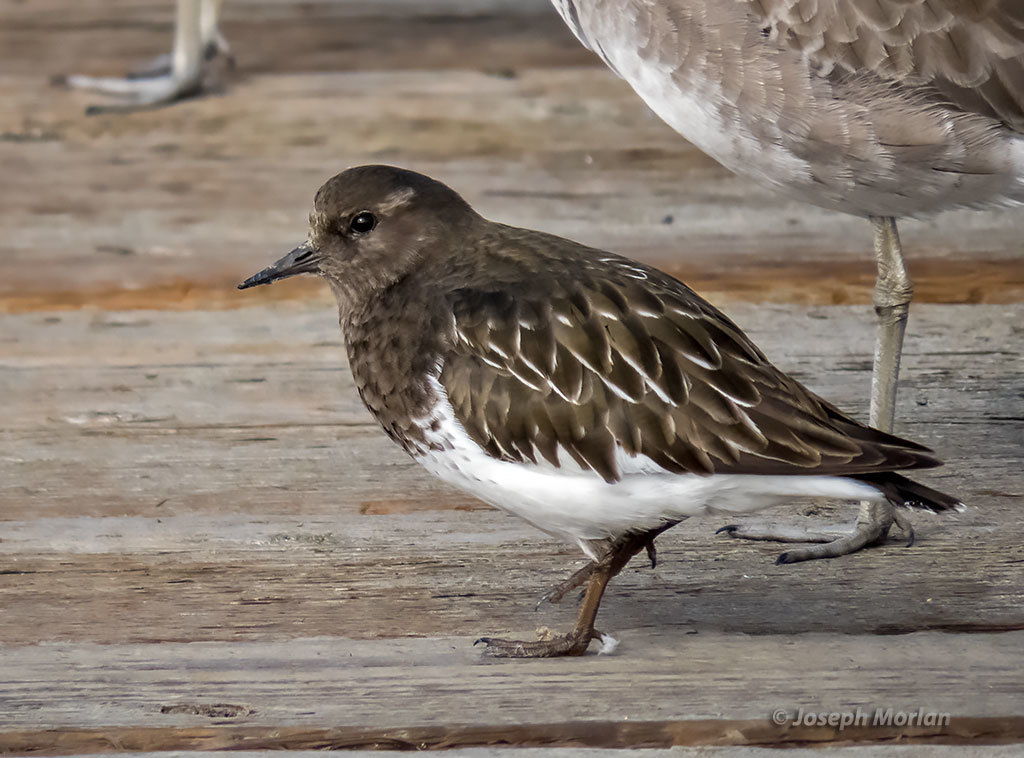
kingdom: Animalia
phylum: Chordata
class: Aves
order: Charadriiformes
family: Scolopacidae
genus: Arenaria
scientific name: Arenaria melanocephala
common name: Black turnstone
